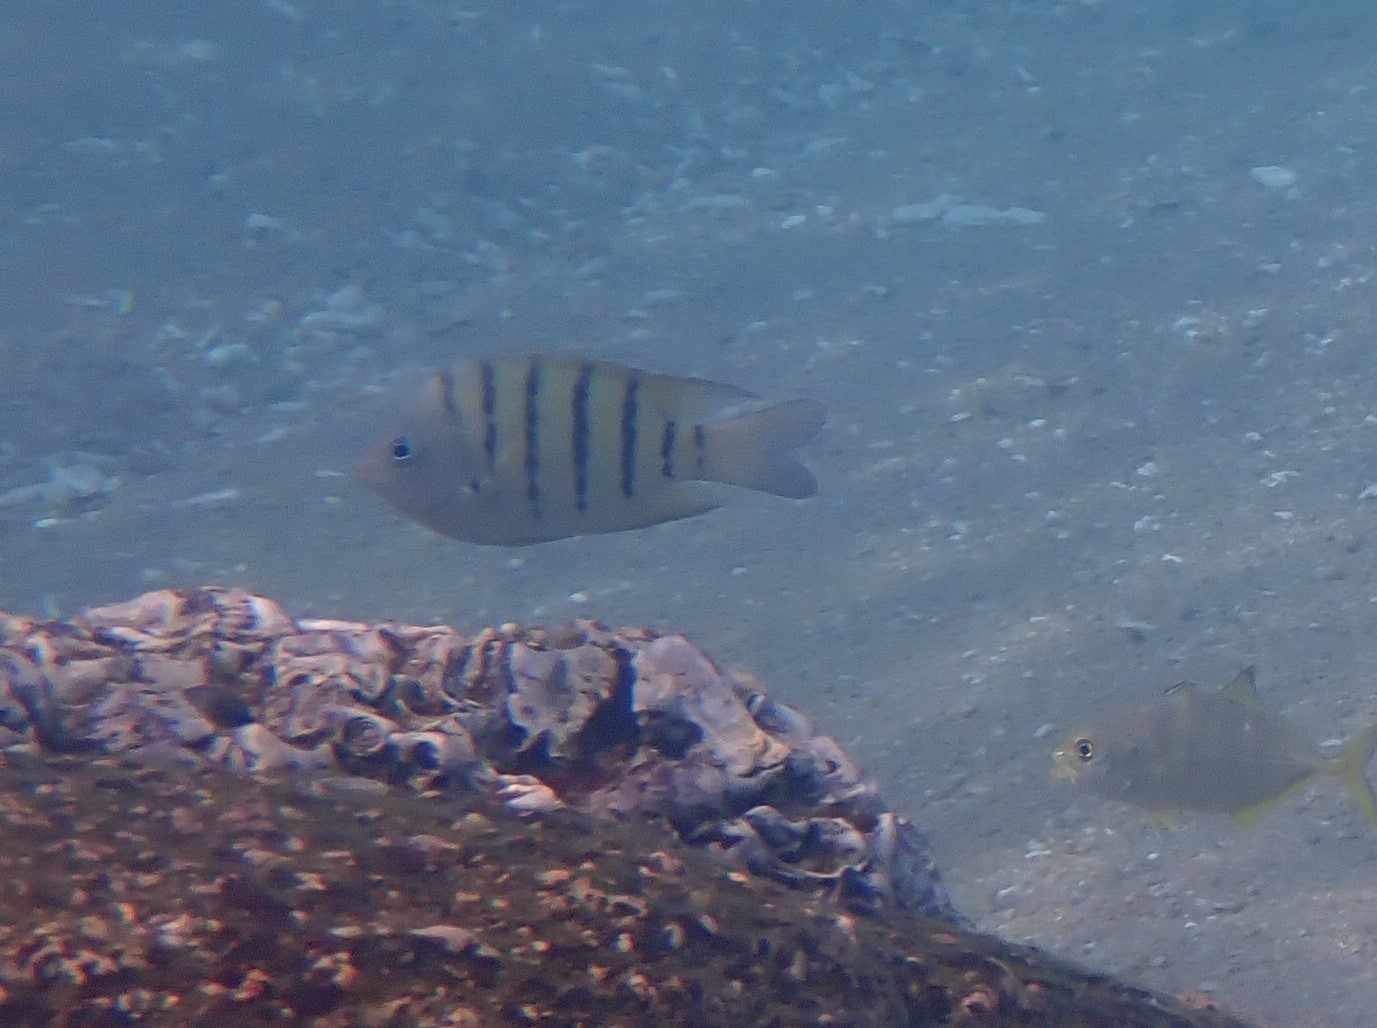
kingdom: Animalia
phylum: Chordata
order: Perciformes
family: Pomacentridae
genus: Abudefduf
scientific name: Abudefduf bengalensis
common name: Bengal sergeant
